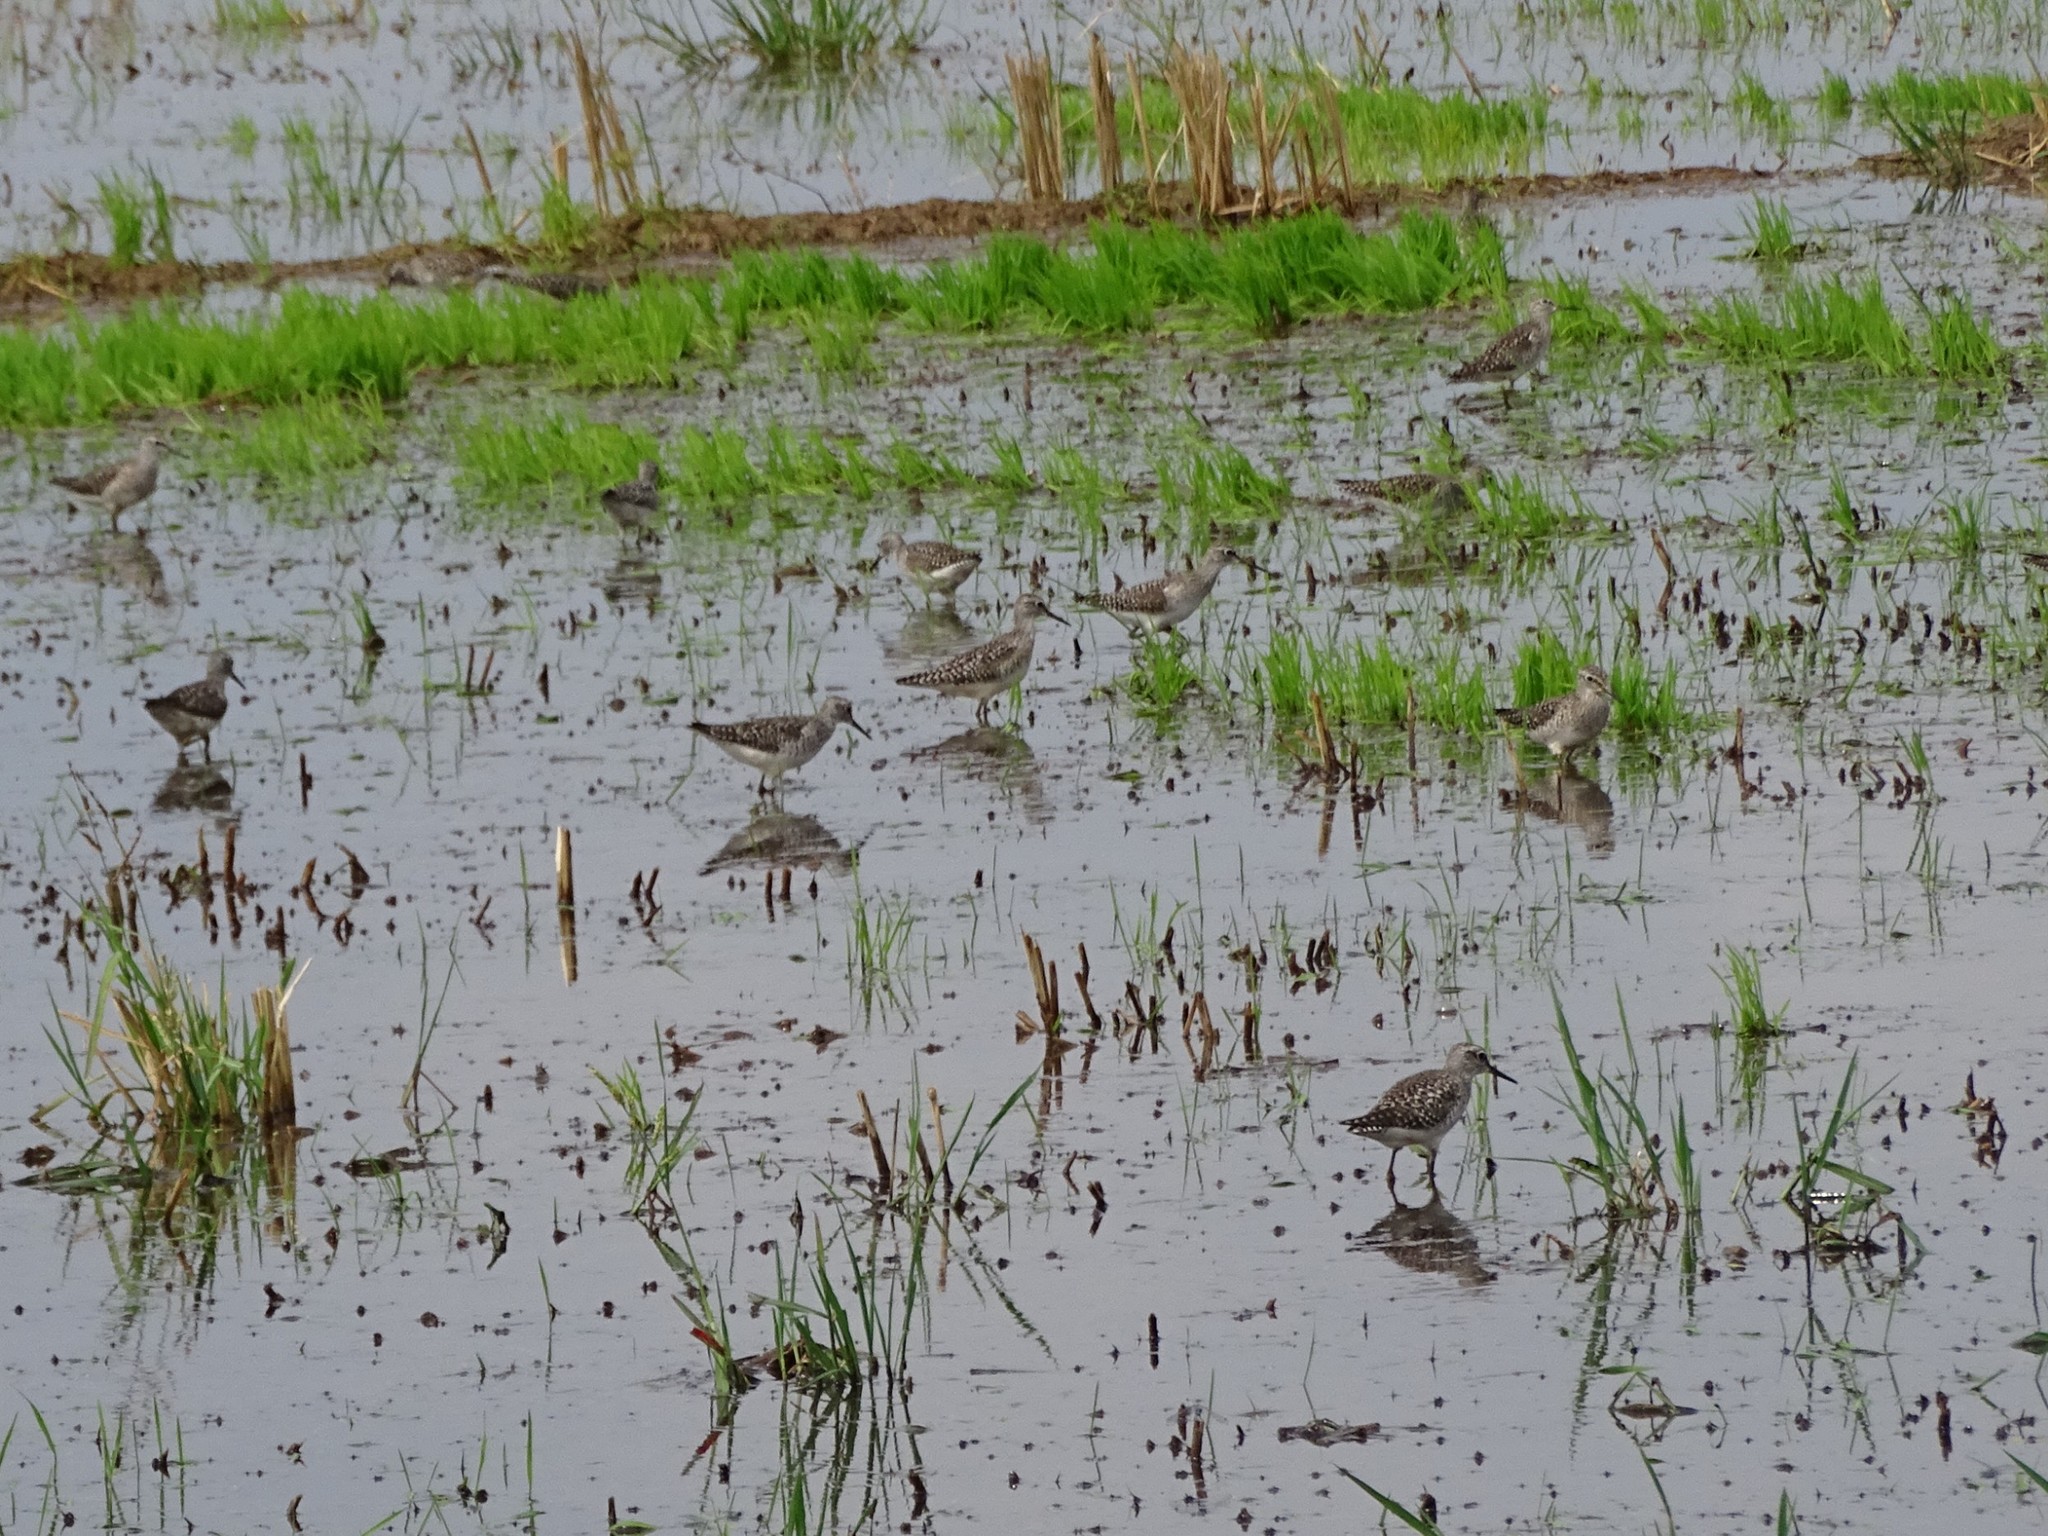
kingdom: Animalia
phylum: Chordata
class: Aves
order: Charadriiformes
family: Scolopacidae
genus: Tringa
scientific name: Tringa glareola
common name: Wood sandpiper
